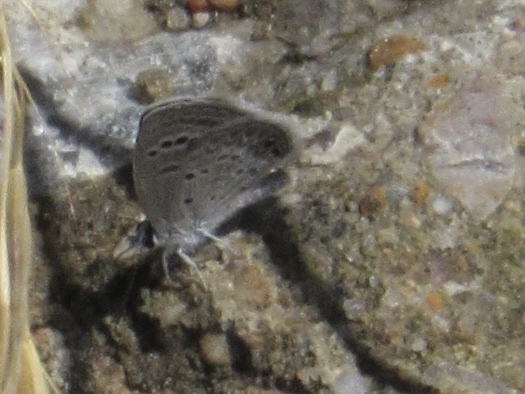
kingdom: Animalia
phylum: Arthropoda
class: Insecta
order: Lepidoptera
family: Lycaenidae
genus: Echinargus
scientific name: Echinargus isola
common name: Reakirt's blue
